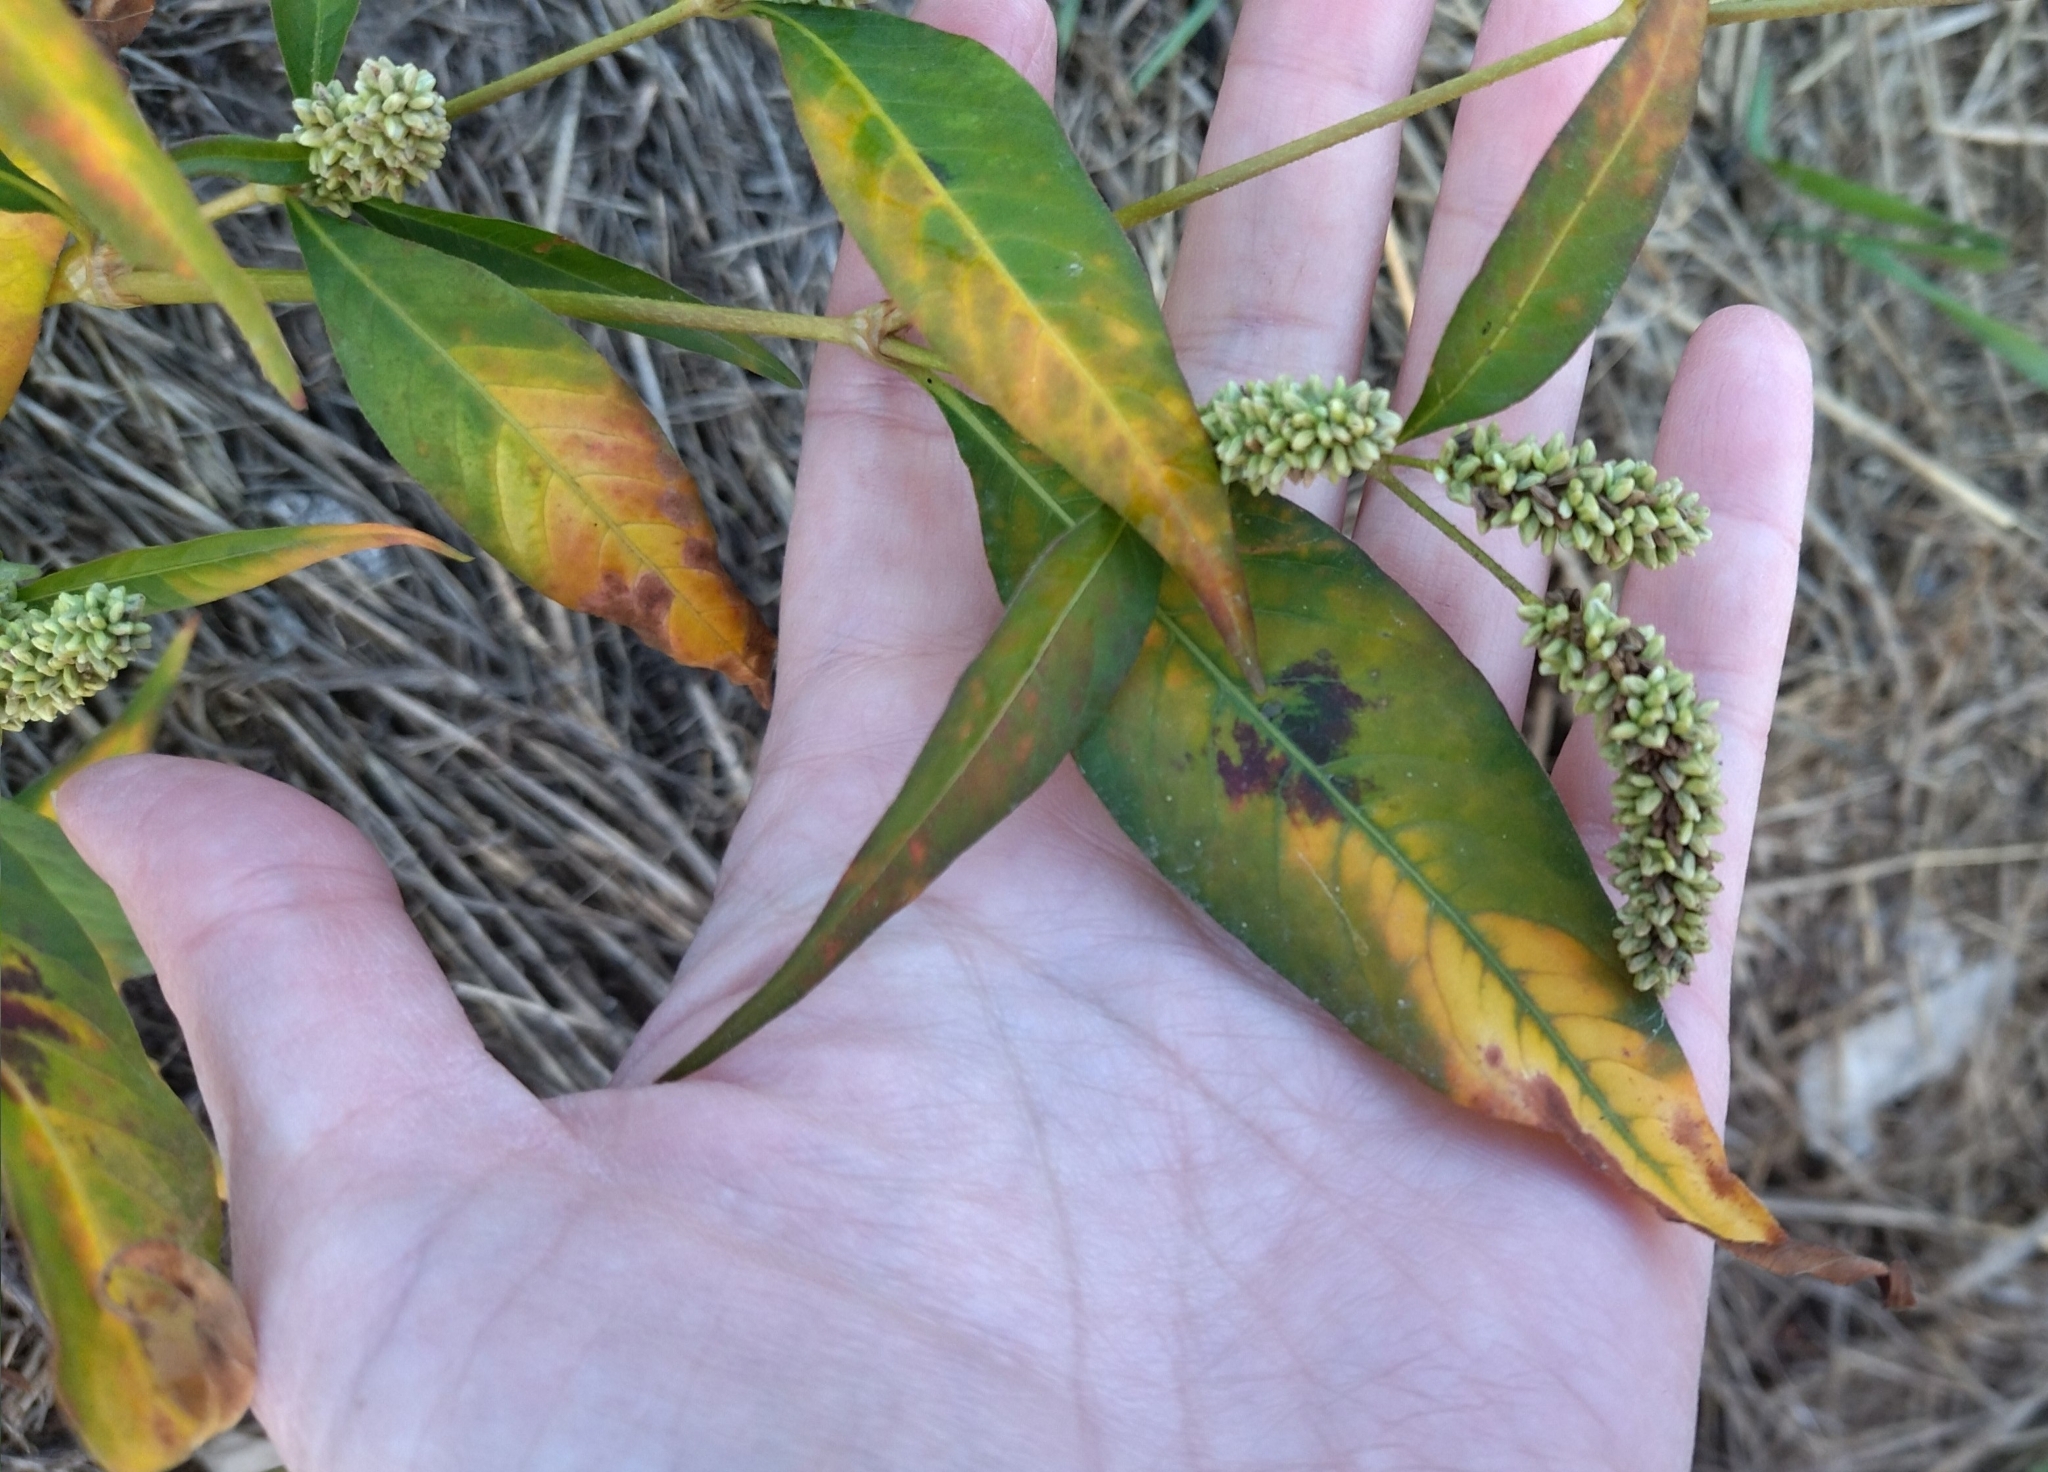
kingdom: Plantae
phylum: Tracheophyta
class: Magnoliopsida
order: Caryophyllales
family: Polygonaceae
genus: Persicaria
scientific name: Persicaria lapathifolia
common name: Curlytop knotweed
